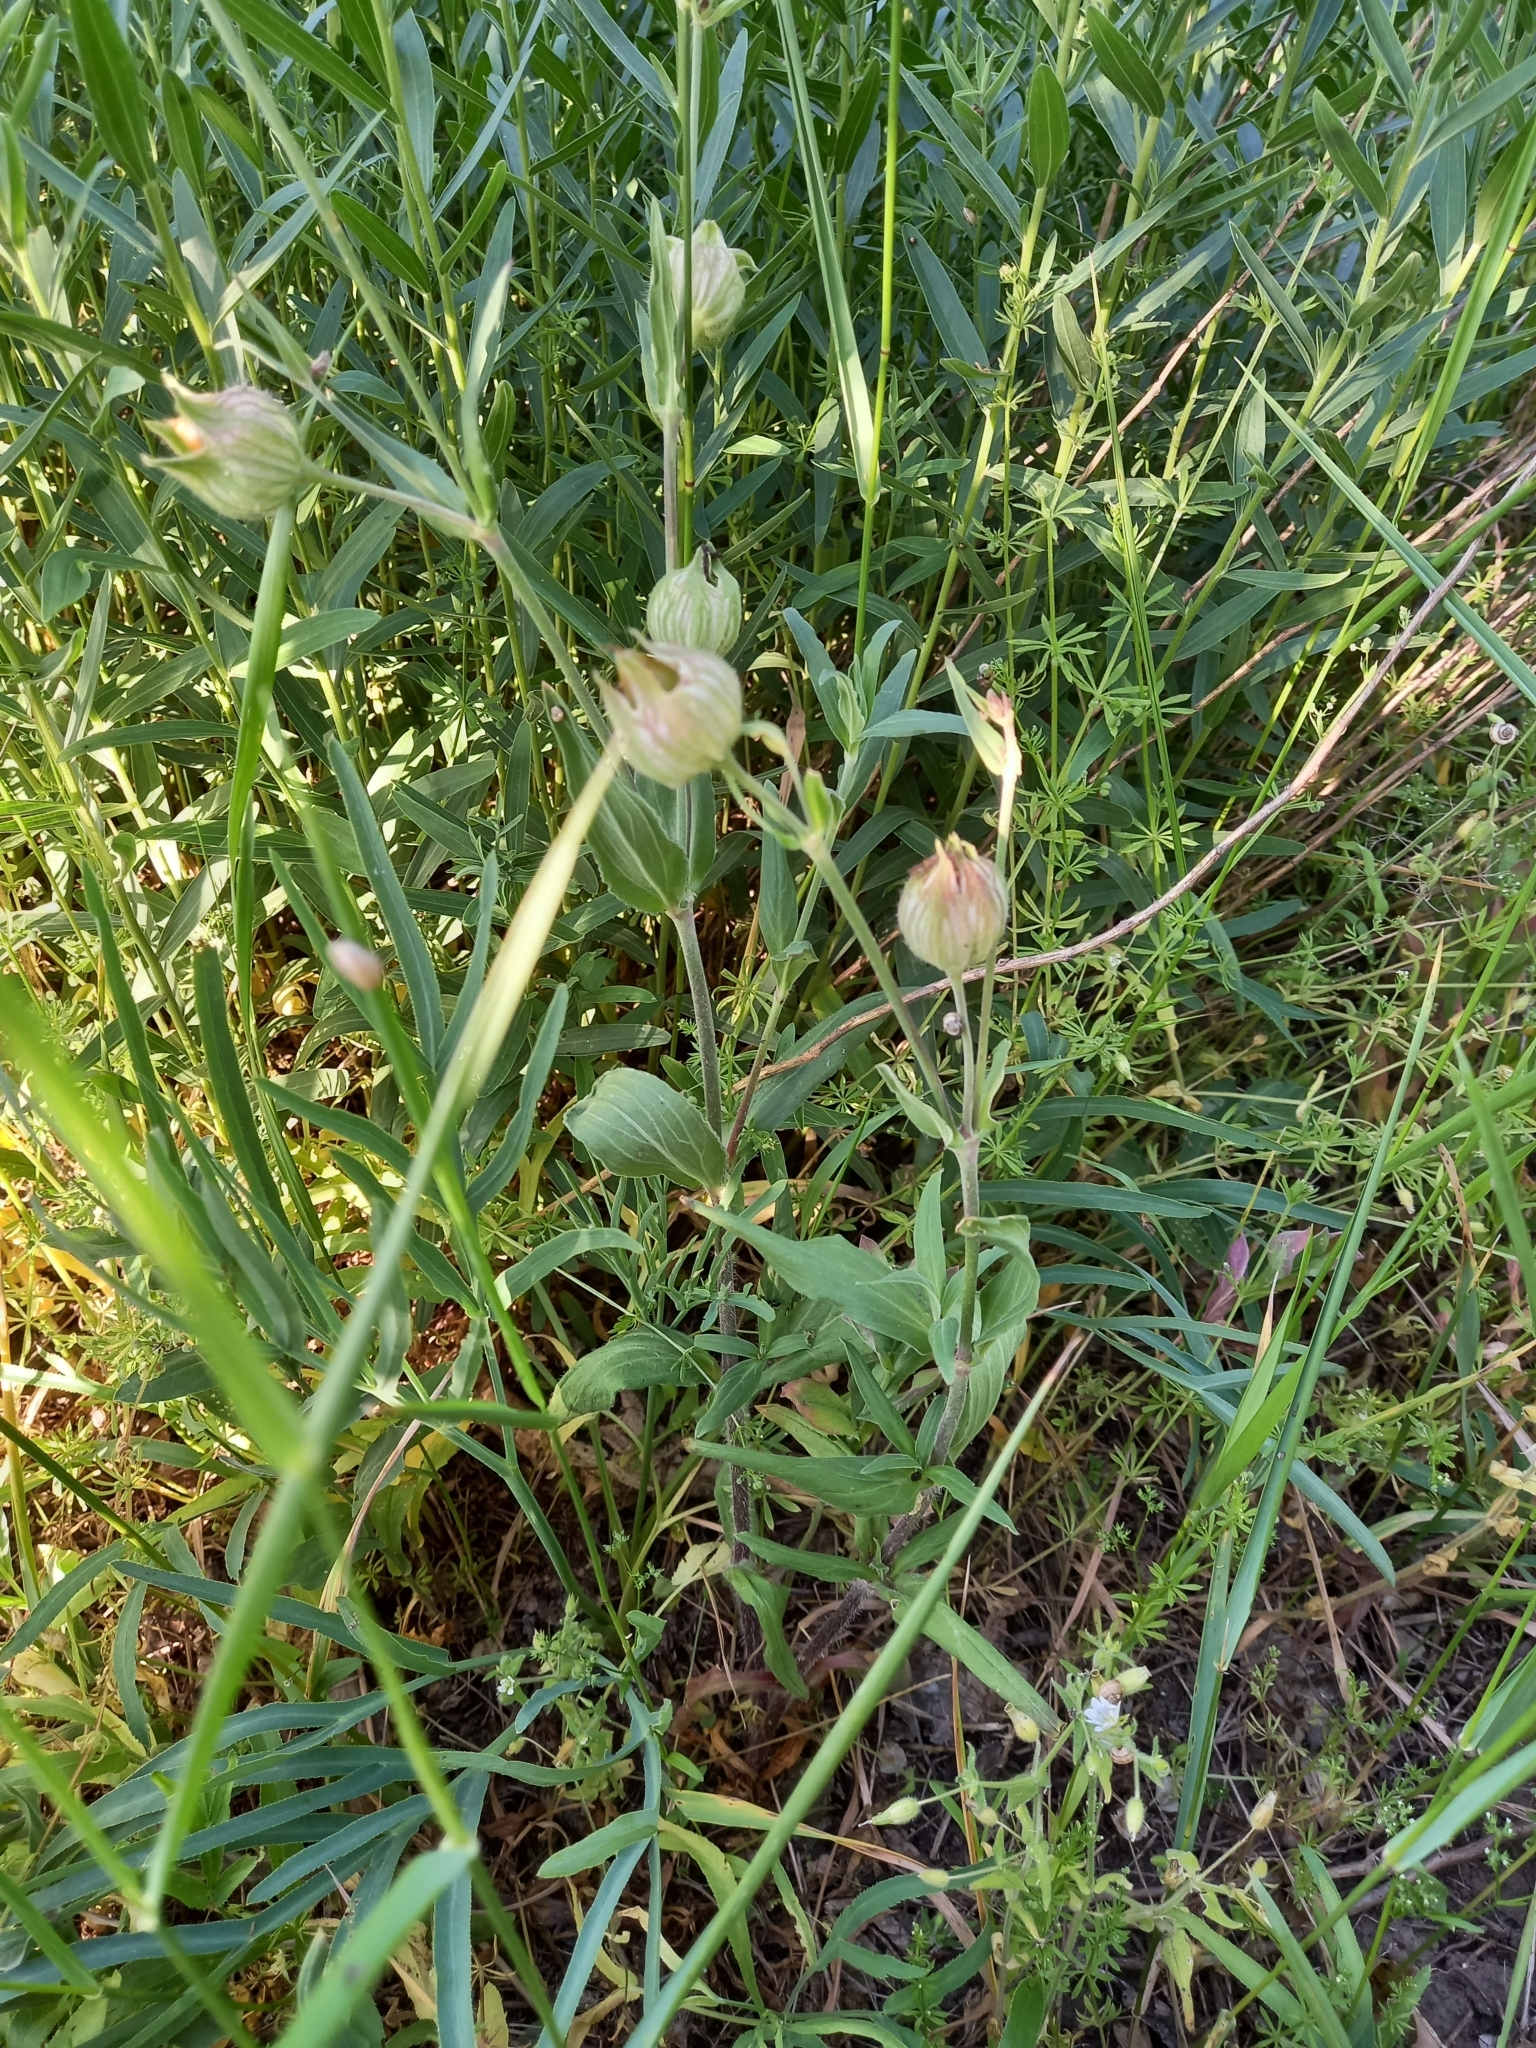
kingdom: Plantae
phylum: Tracheophyta
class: Magnoliopsida
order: Caryophyllales
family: Caryophyllaceae
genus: Silene
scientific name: Silene latifolia
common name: White campion
